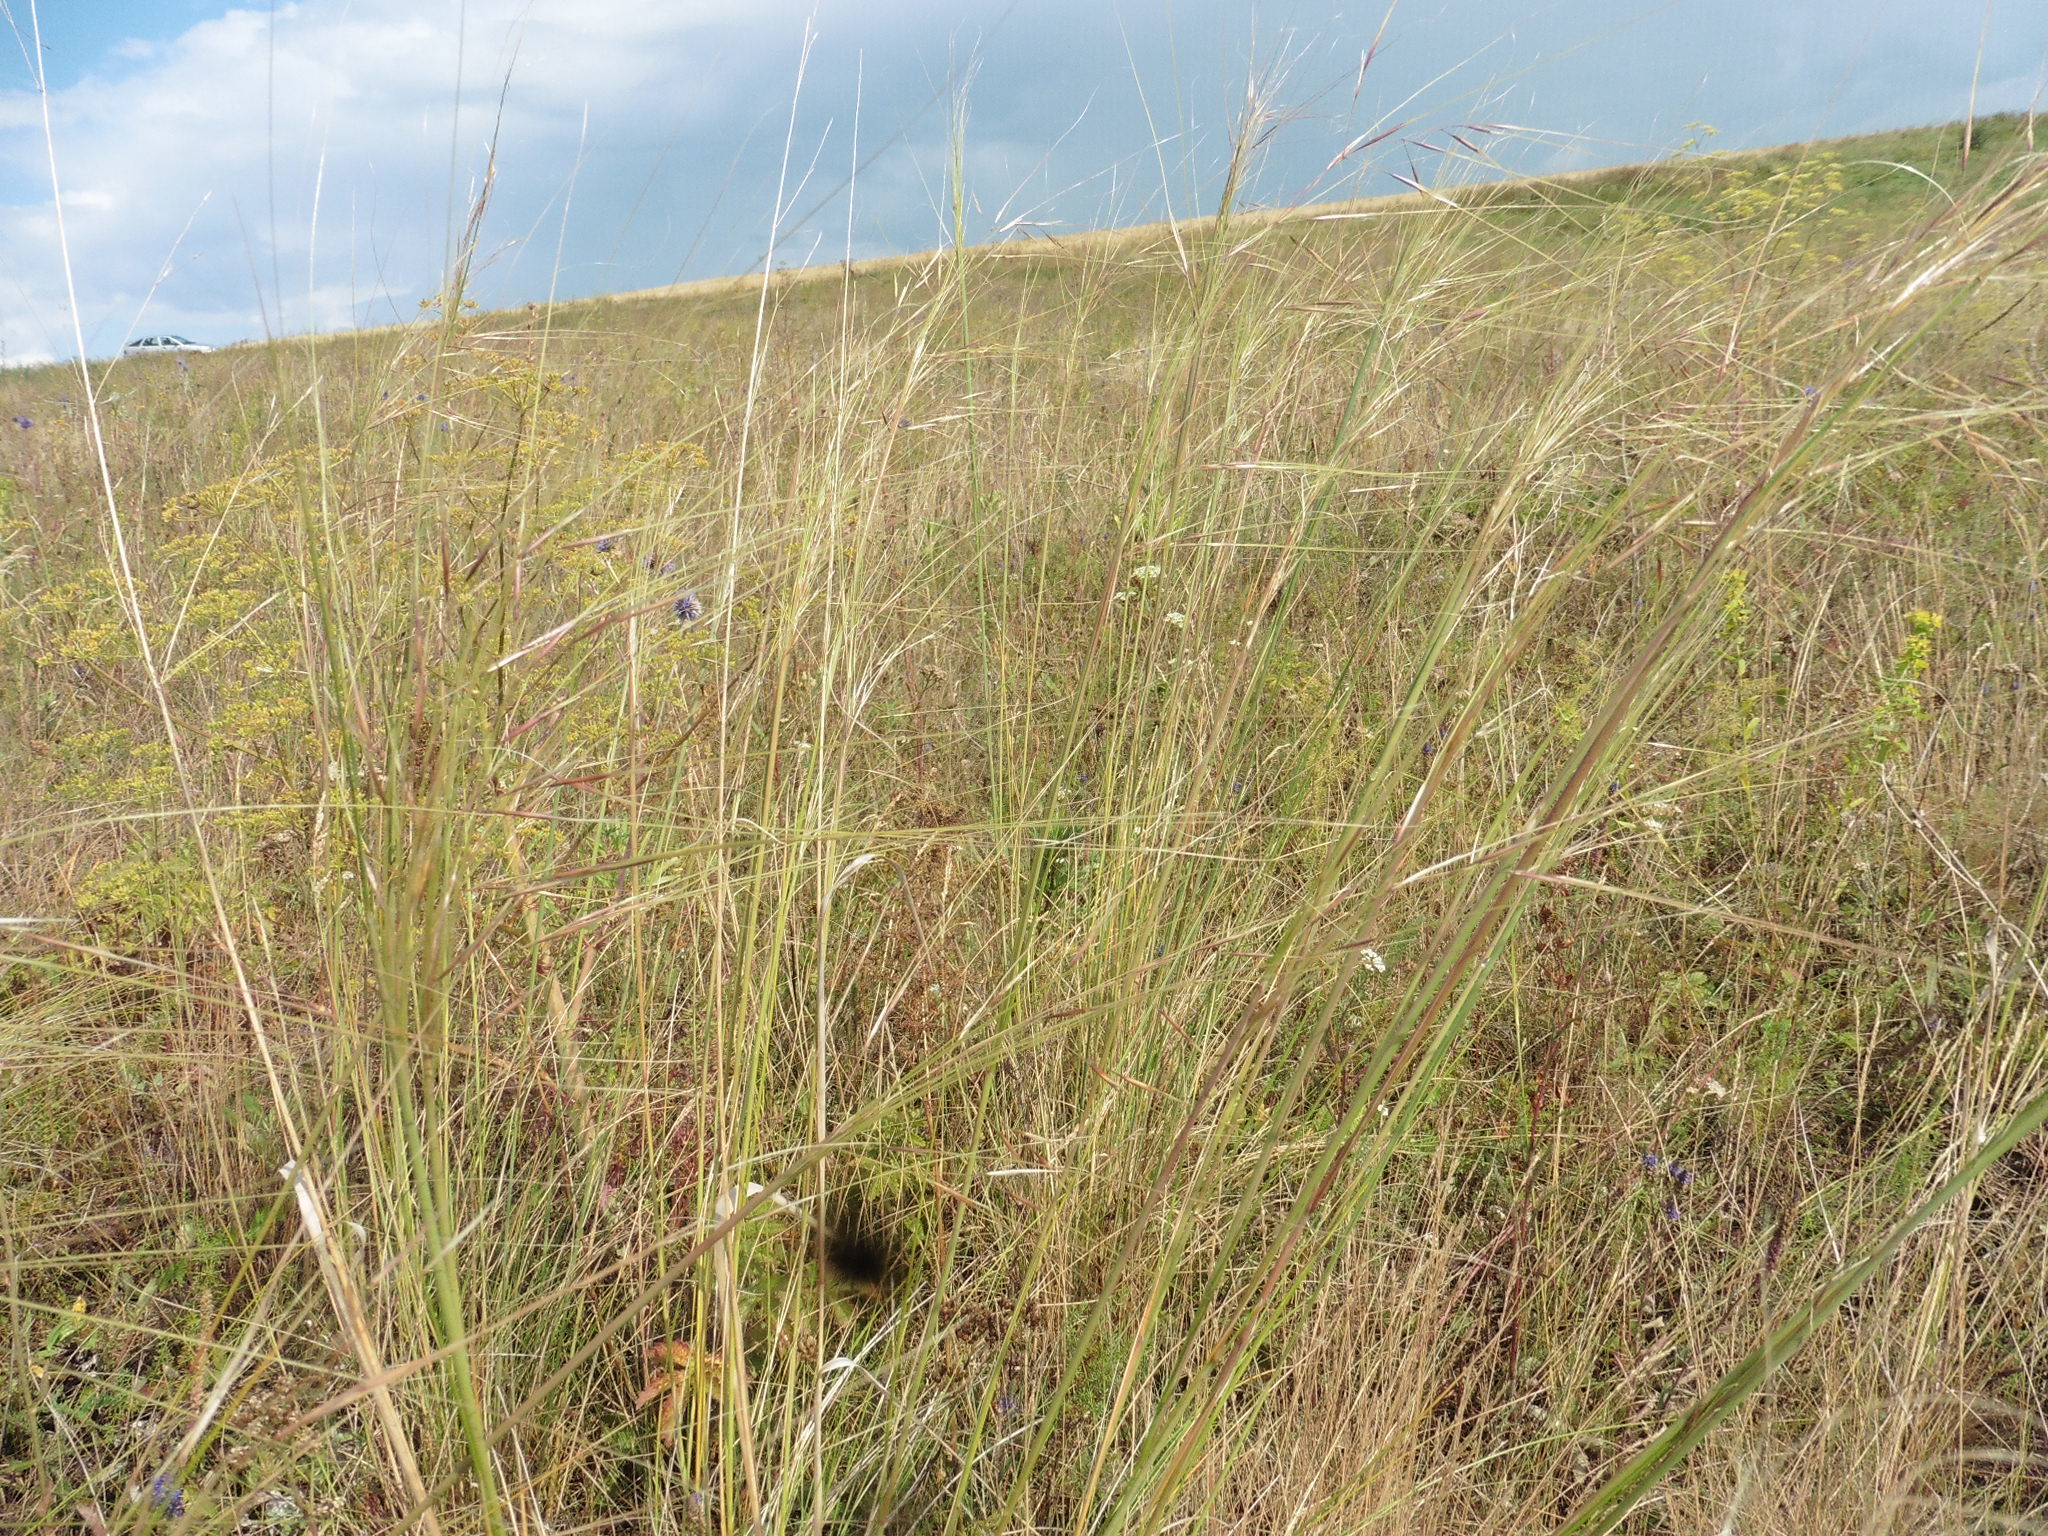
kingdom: Plantae
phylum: Tracheophyta
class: Liliopsida
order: Poales
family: Poaceae
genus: Stipa
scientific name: Stipa capillata
